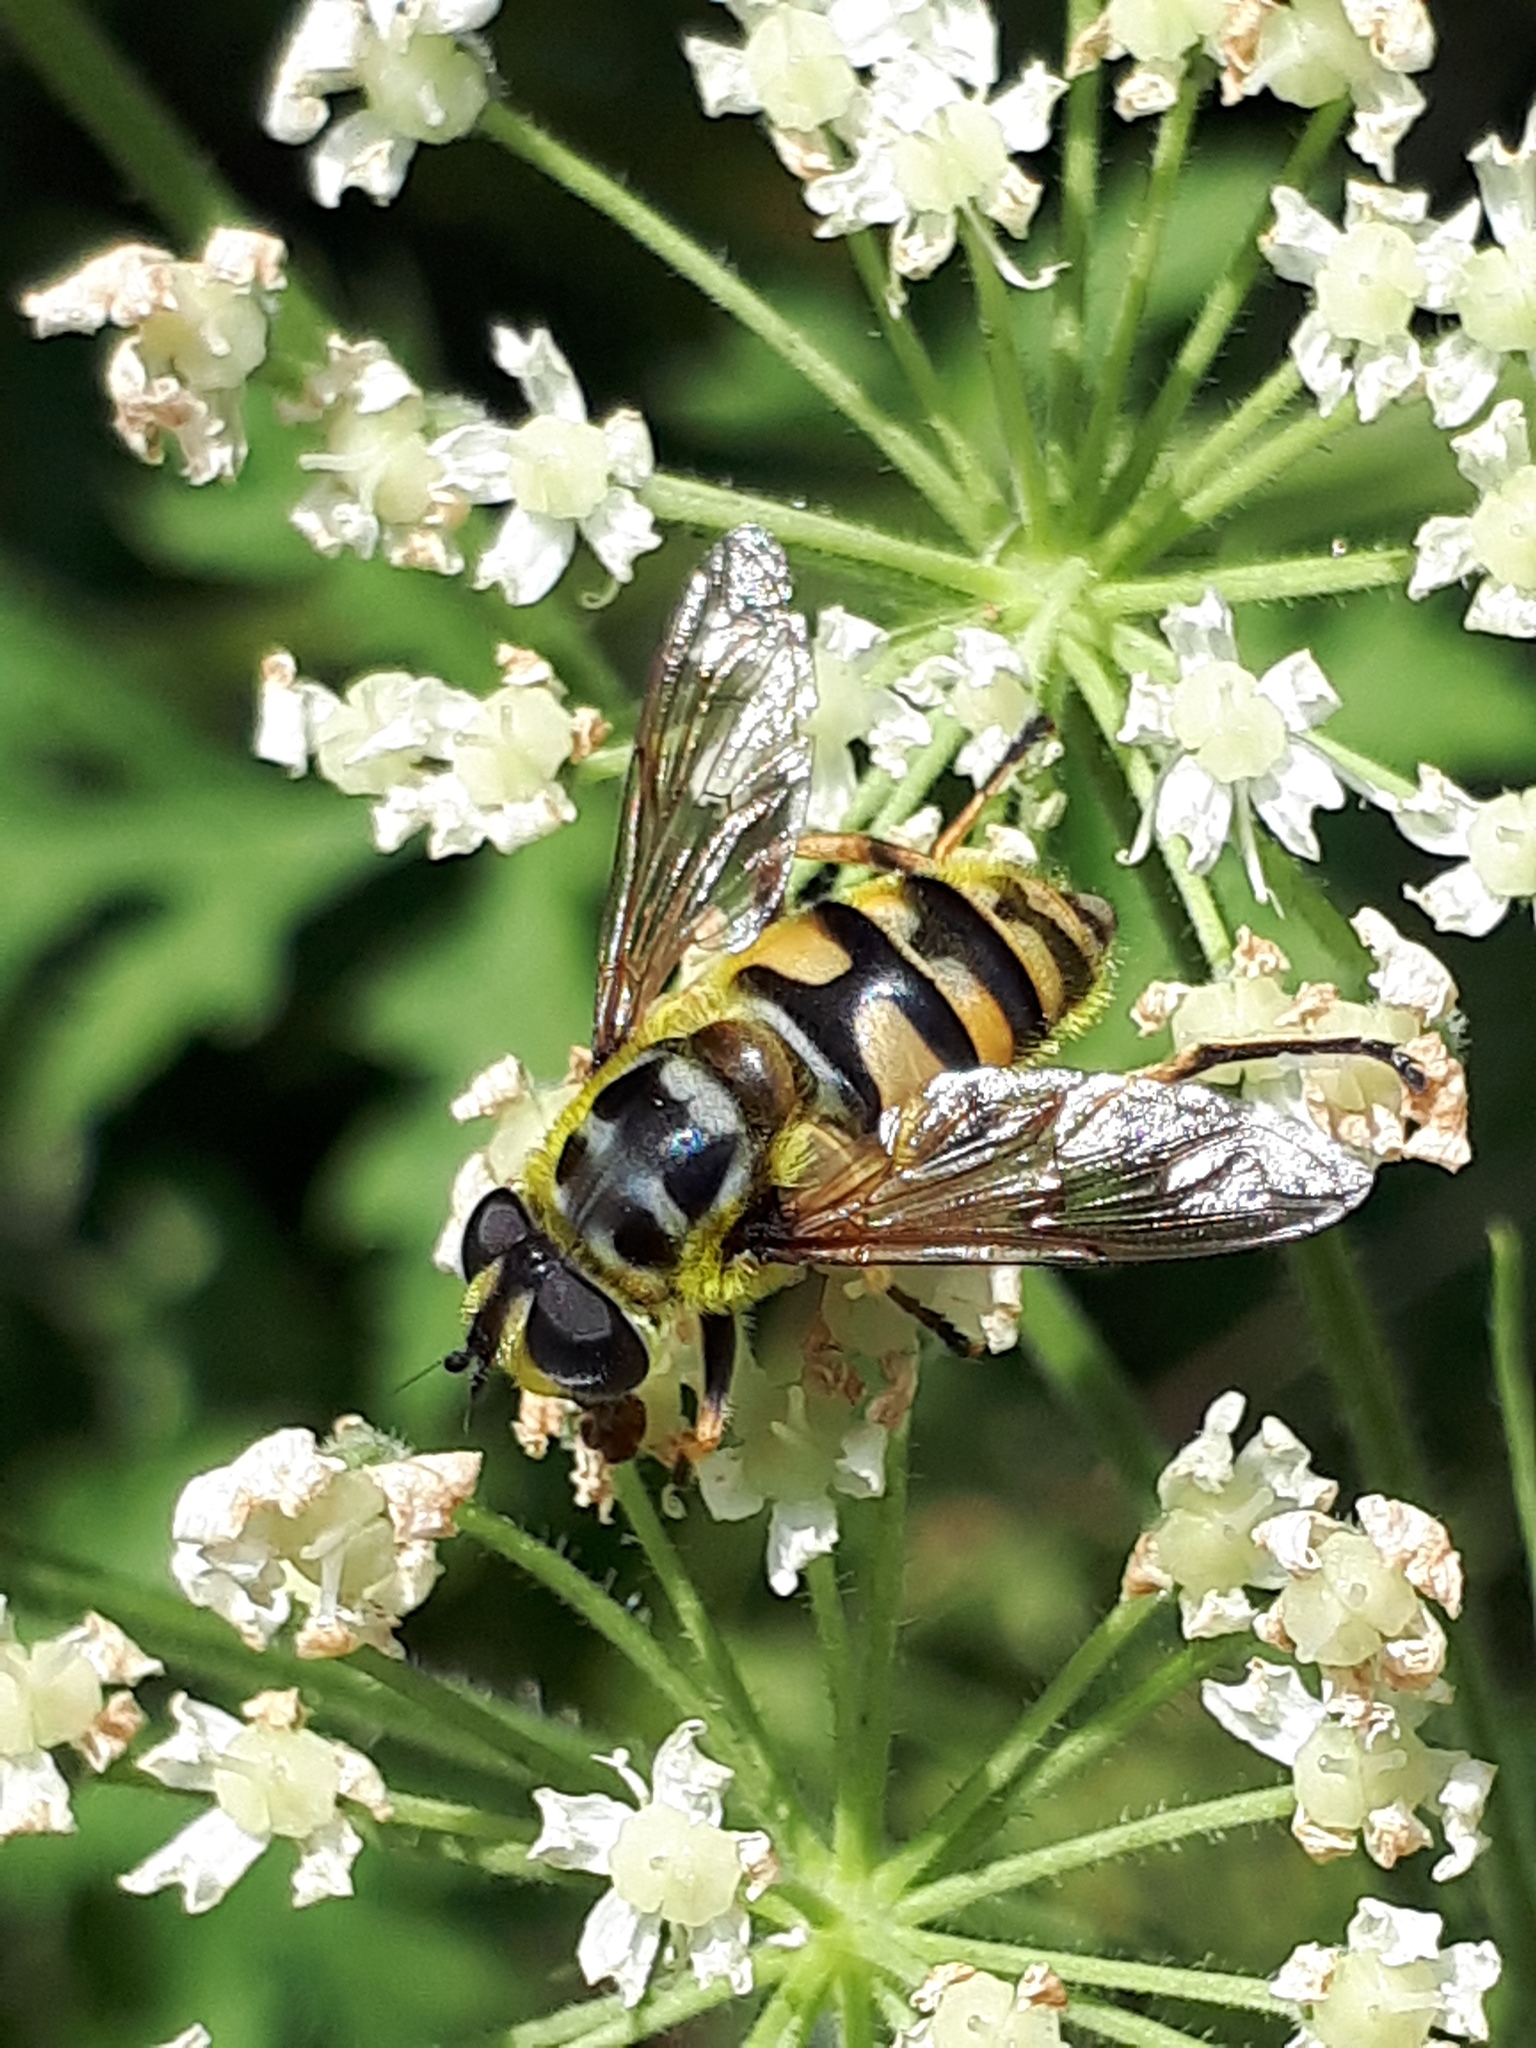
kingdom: Animalia
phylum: Arthropoda
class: Insecta
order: Diptera
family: Syrphidae
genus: Myathropa
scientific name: Myathropa florea
